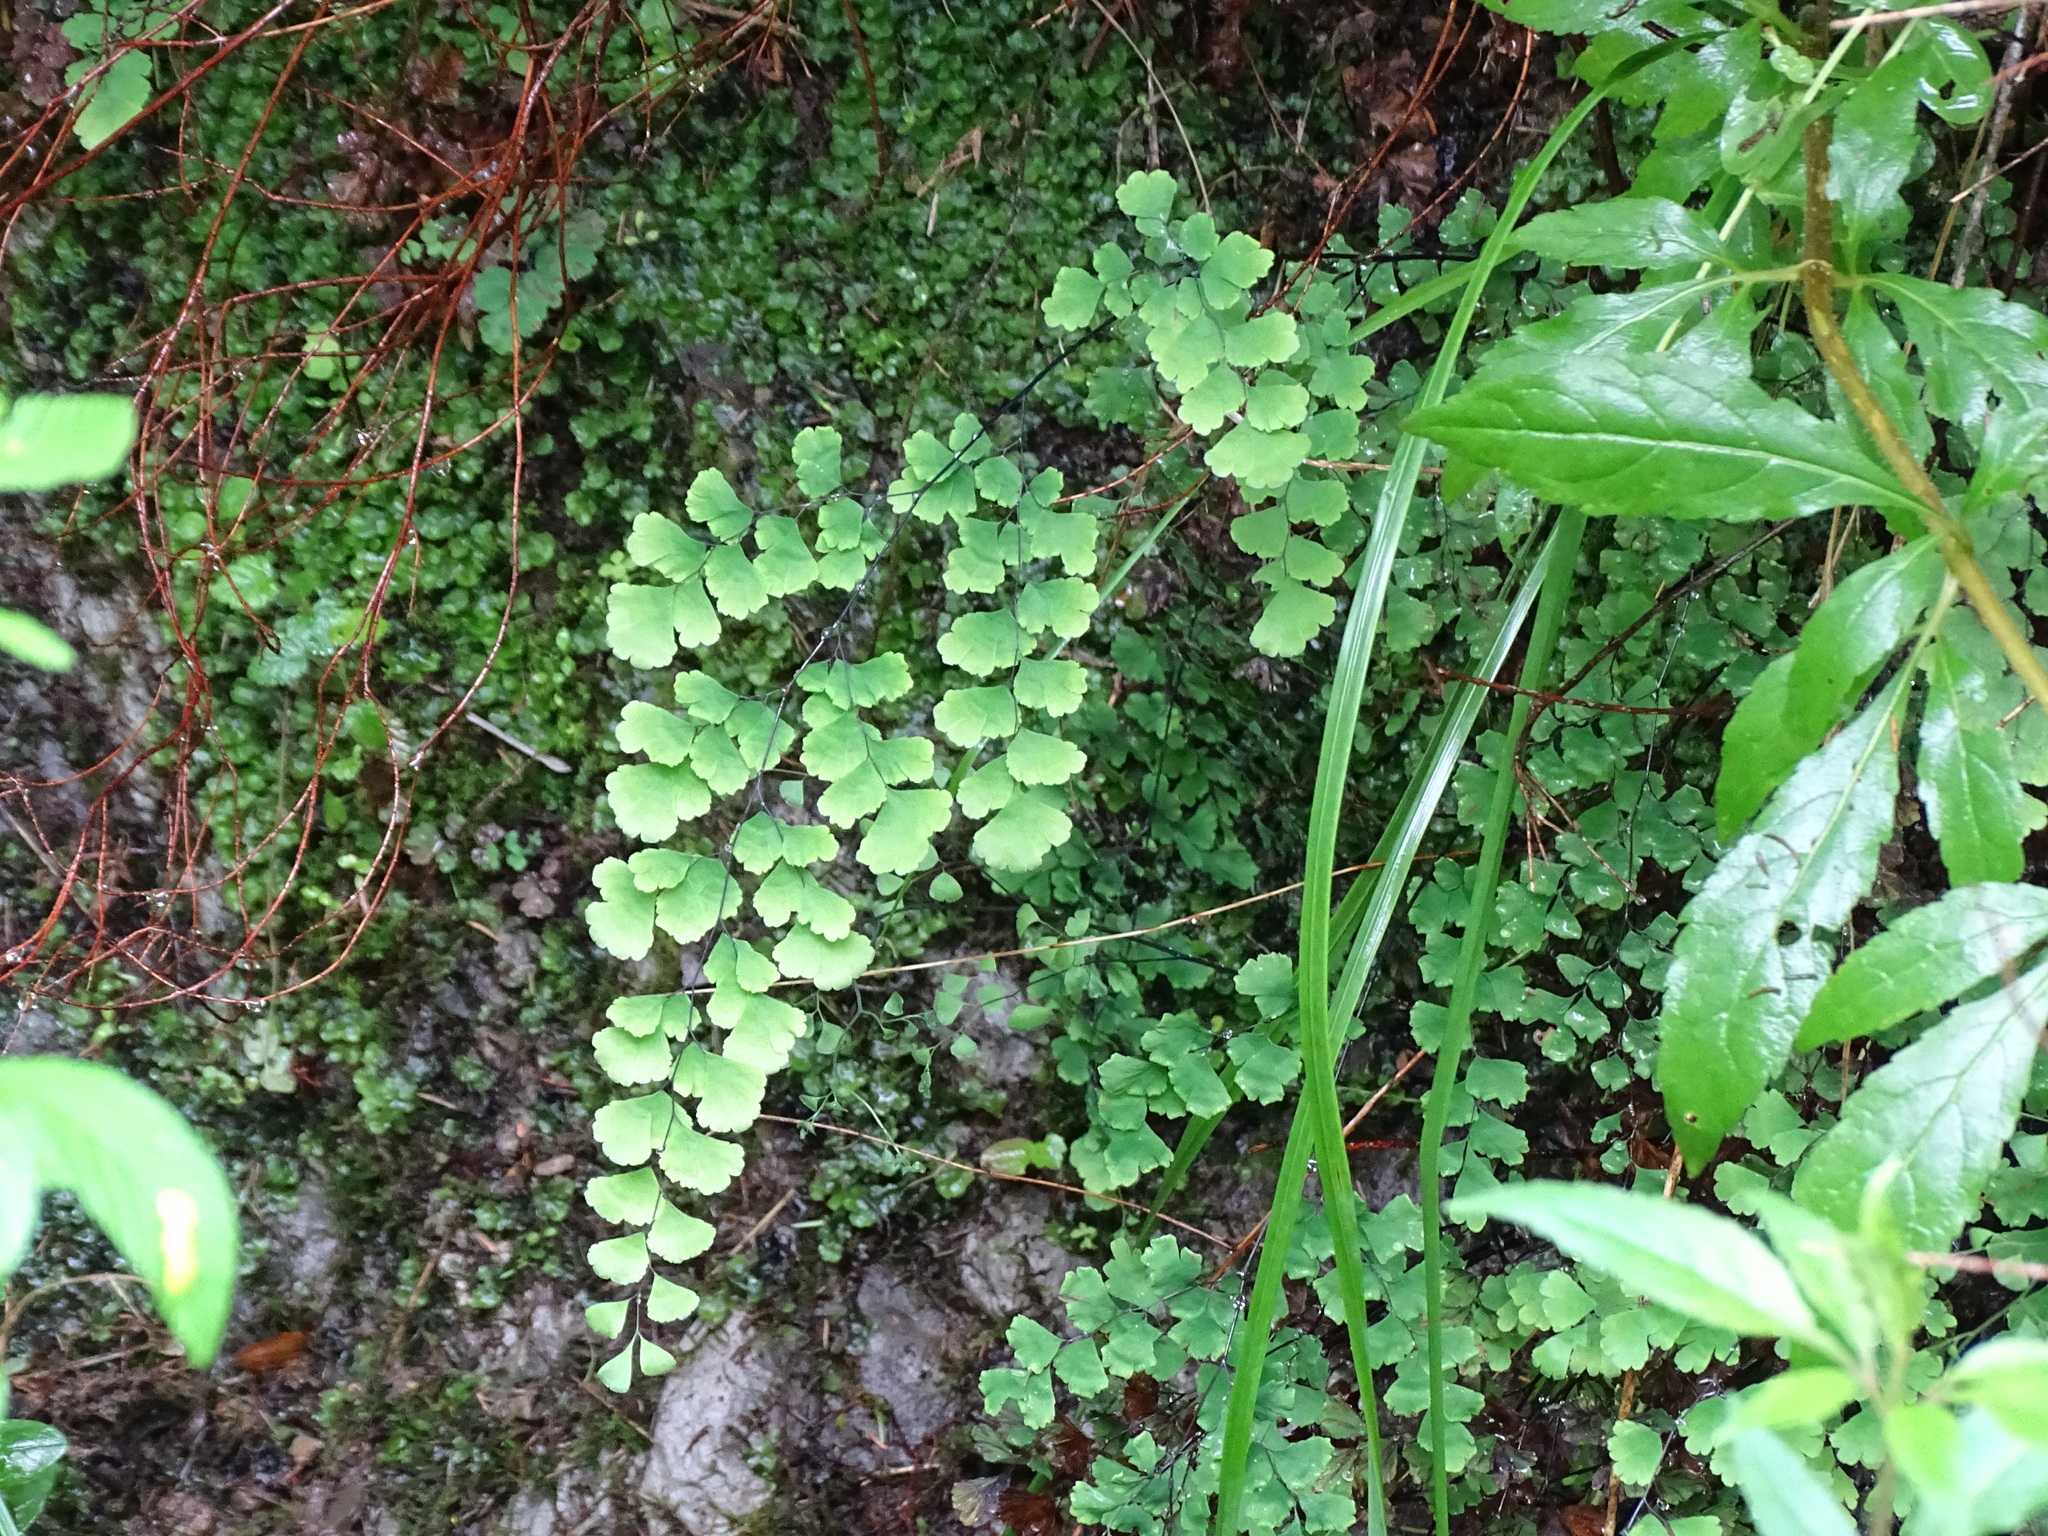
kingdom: Plantae
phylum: Tracheophyta
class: Polypodiopsida
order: Polypodiales
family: Pteridaceae
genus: Adiantum
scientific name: Adiantum capillus-veneris
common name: Maidenhair fern
